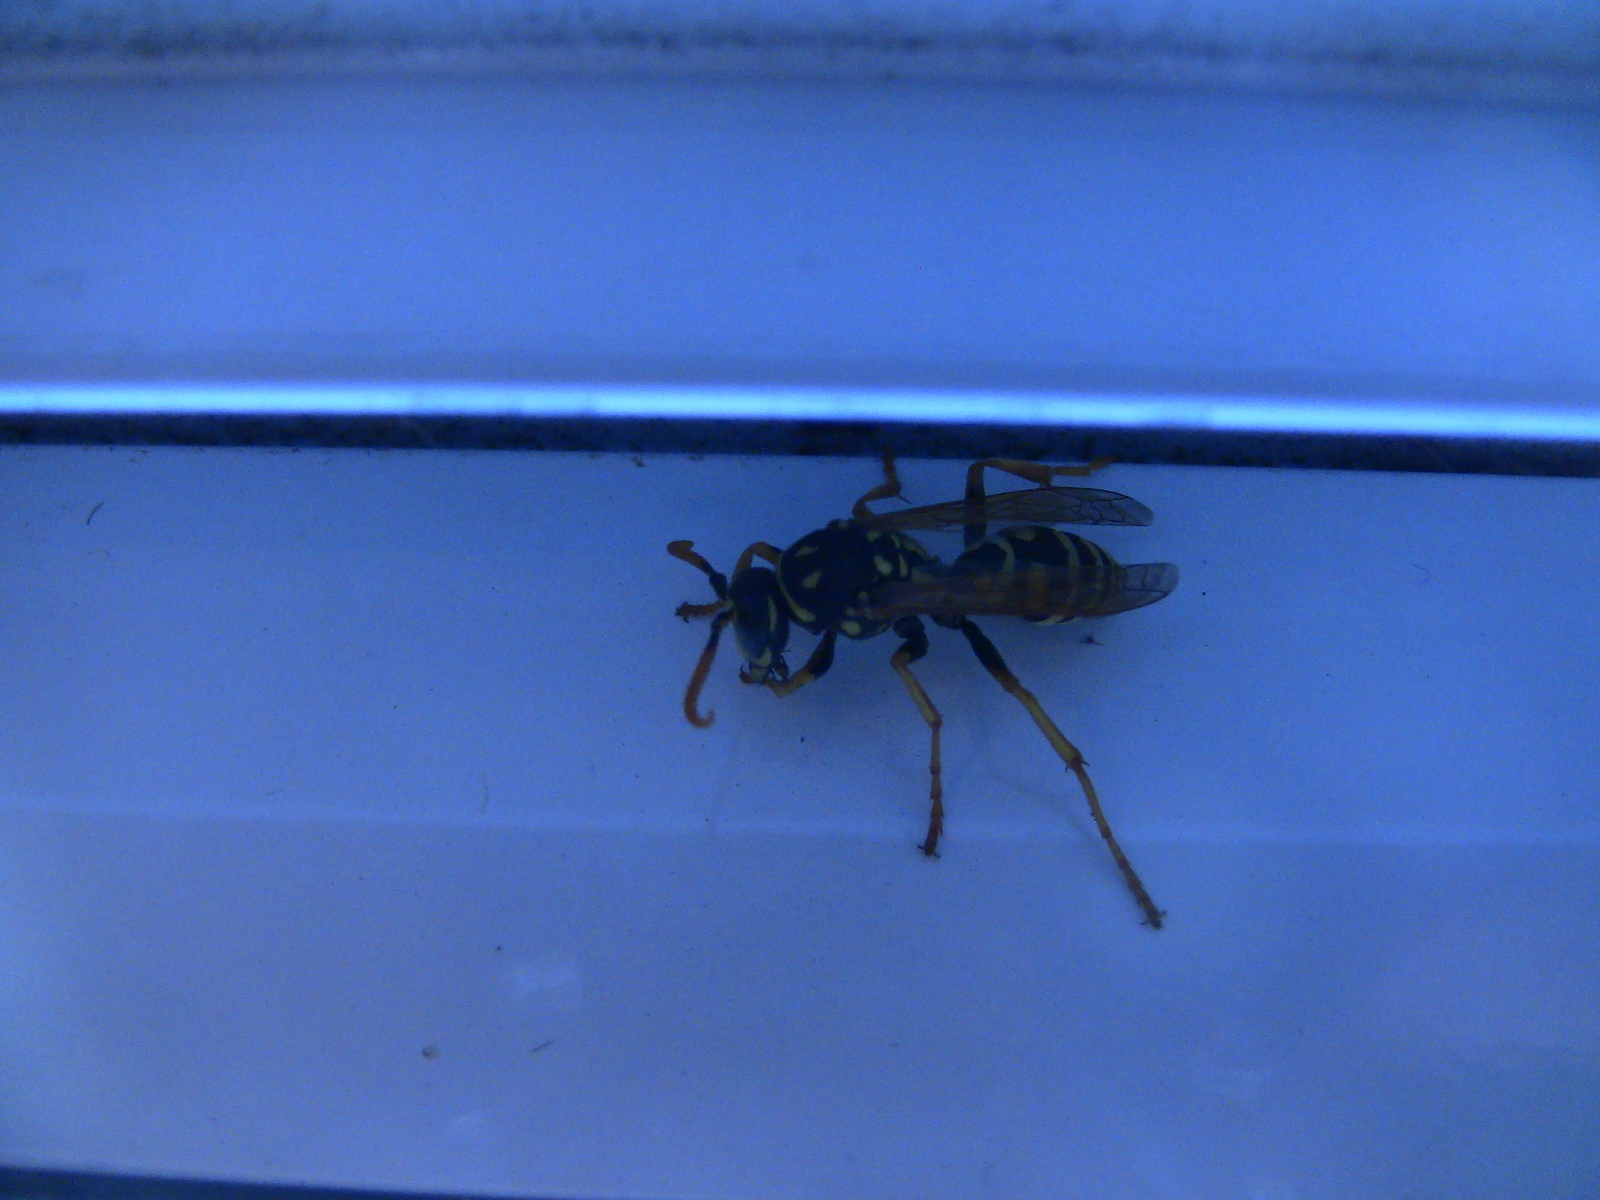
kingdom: Animalia
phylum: Arthropoda
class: Insecta
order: Hymenoptera
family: Eumenidae
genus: Polistes
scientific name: Polistes dominula
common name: Paper wasp
